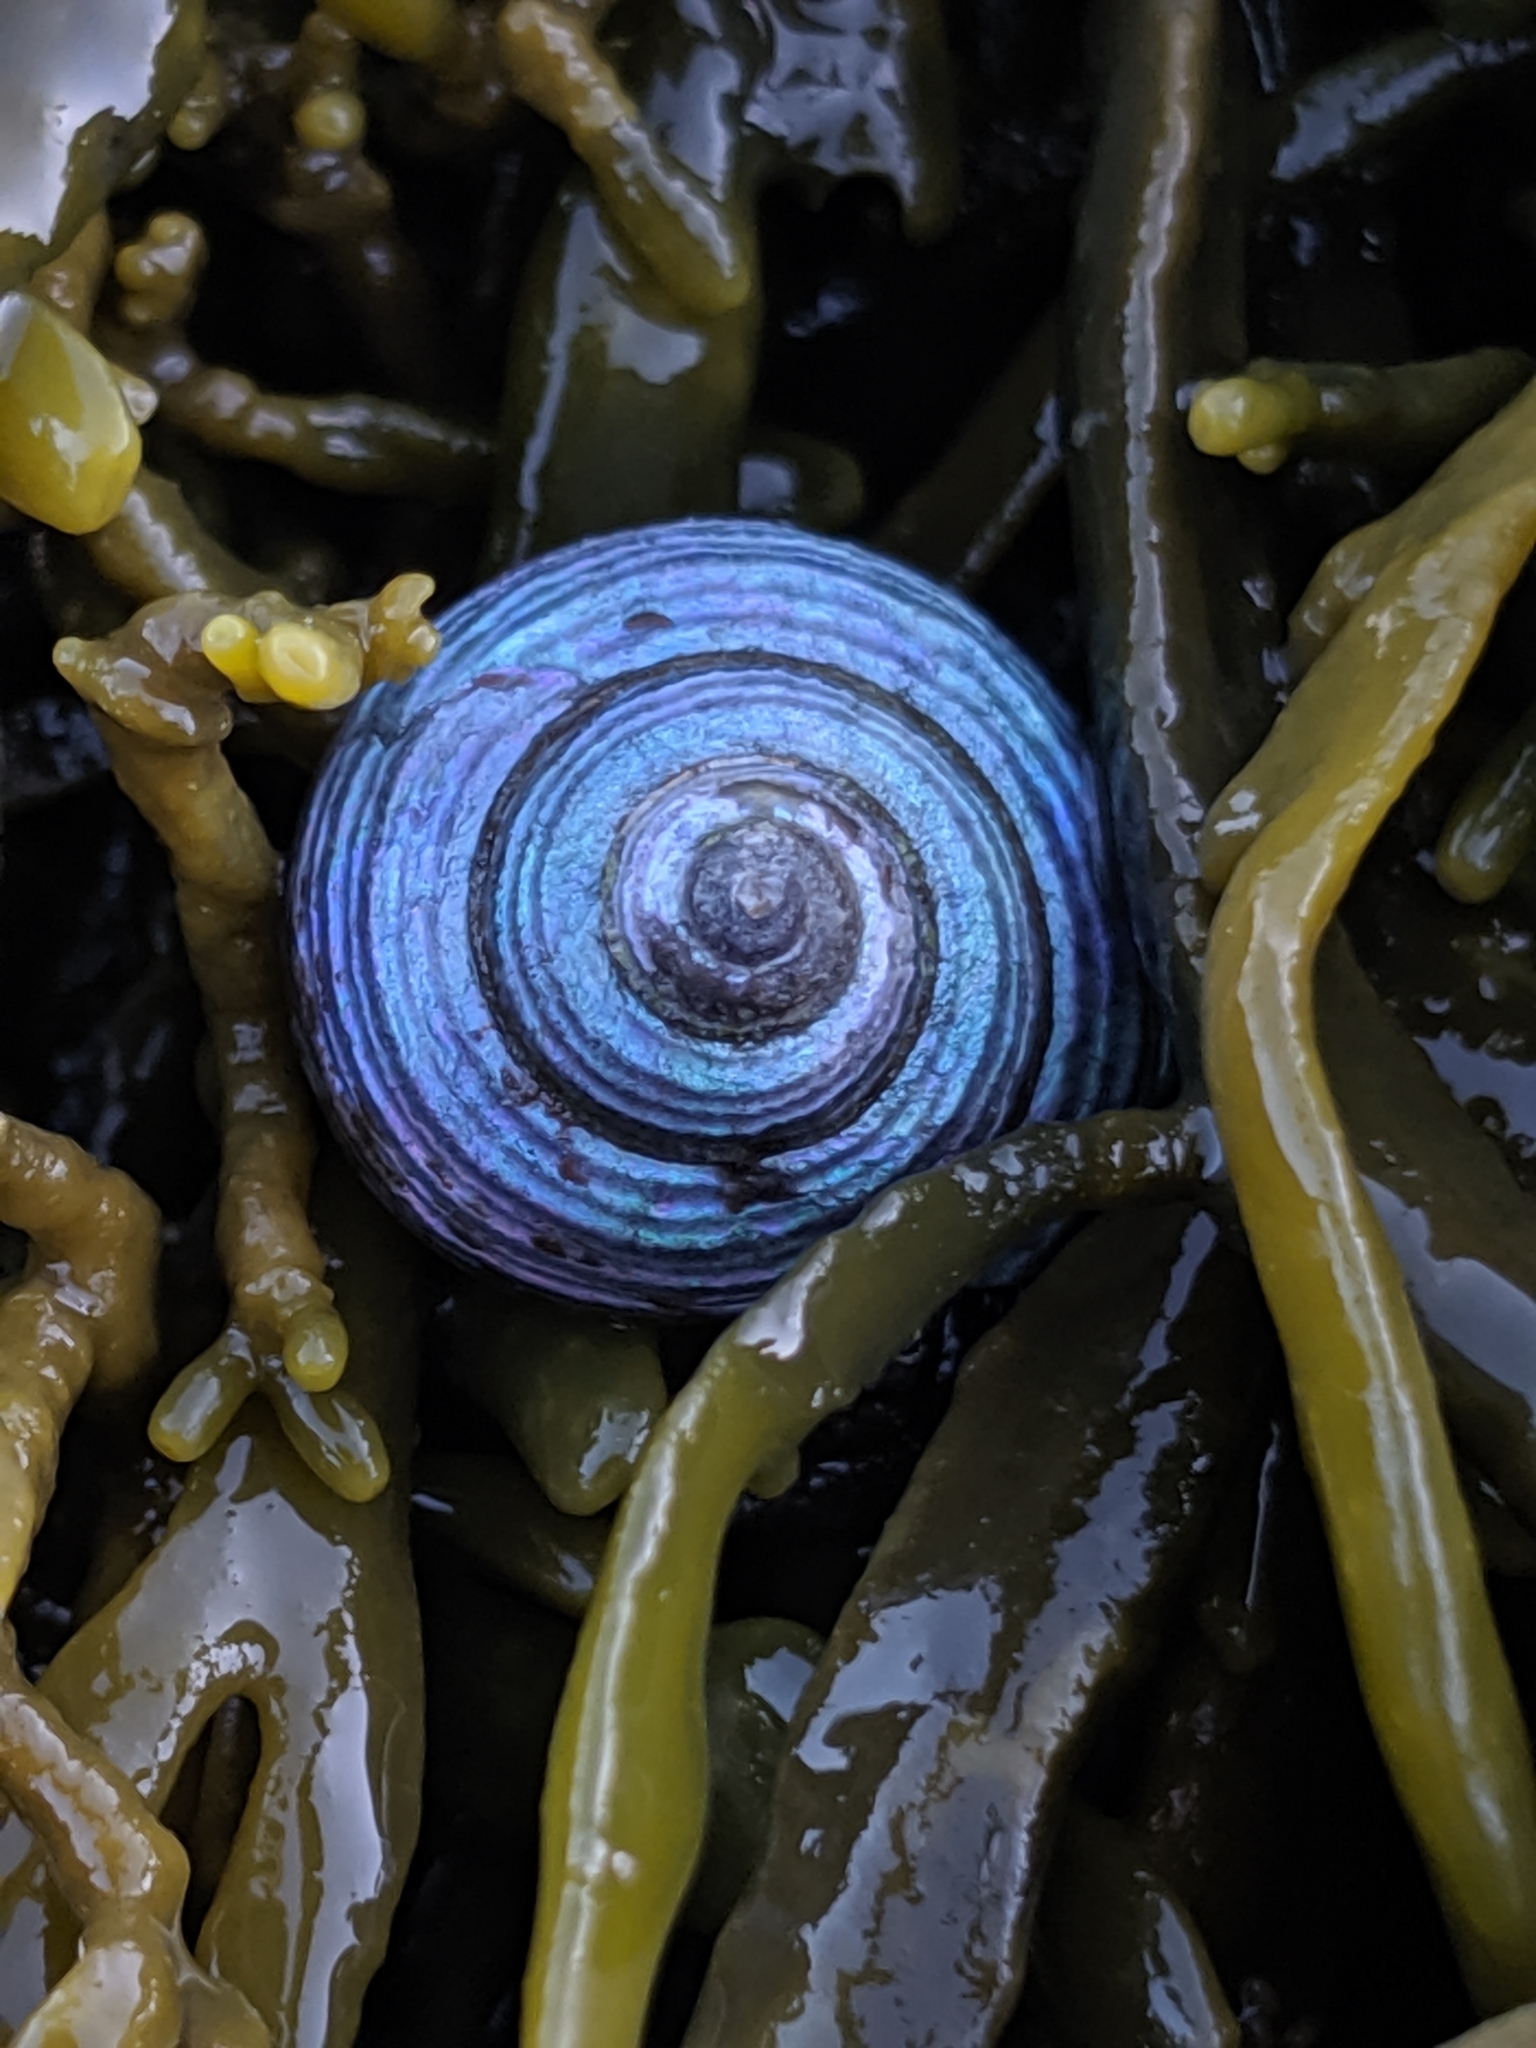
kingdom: Animalia
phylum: Mollusca
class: Gastropoda
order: Trochida
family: Calliostomatidae
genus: Calliostoma
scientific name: Calliostoma ligatum
